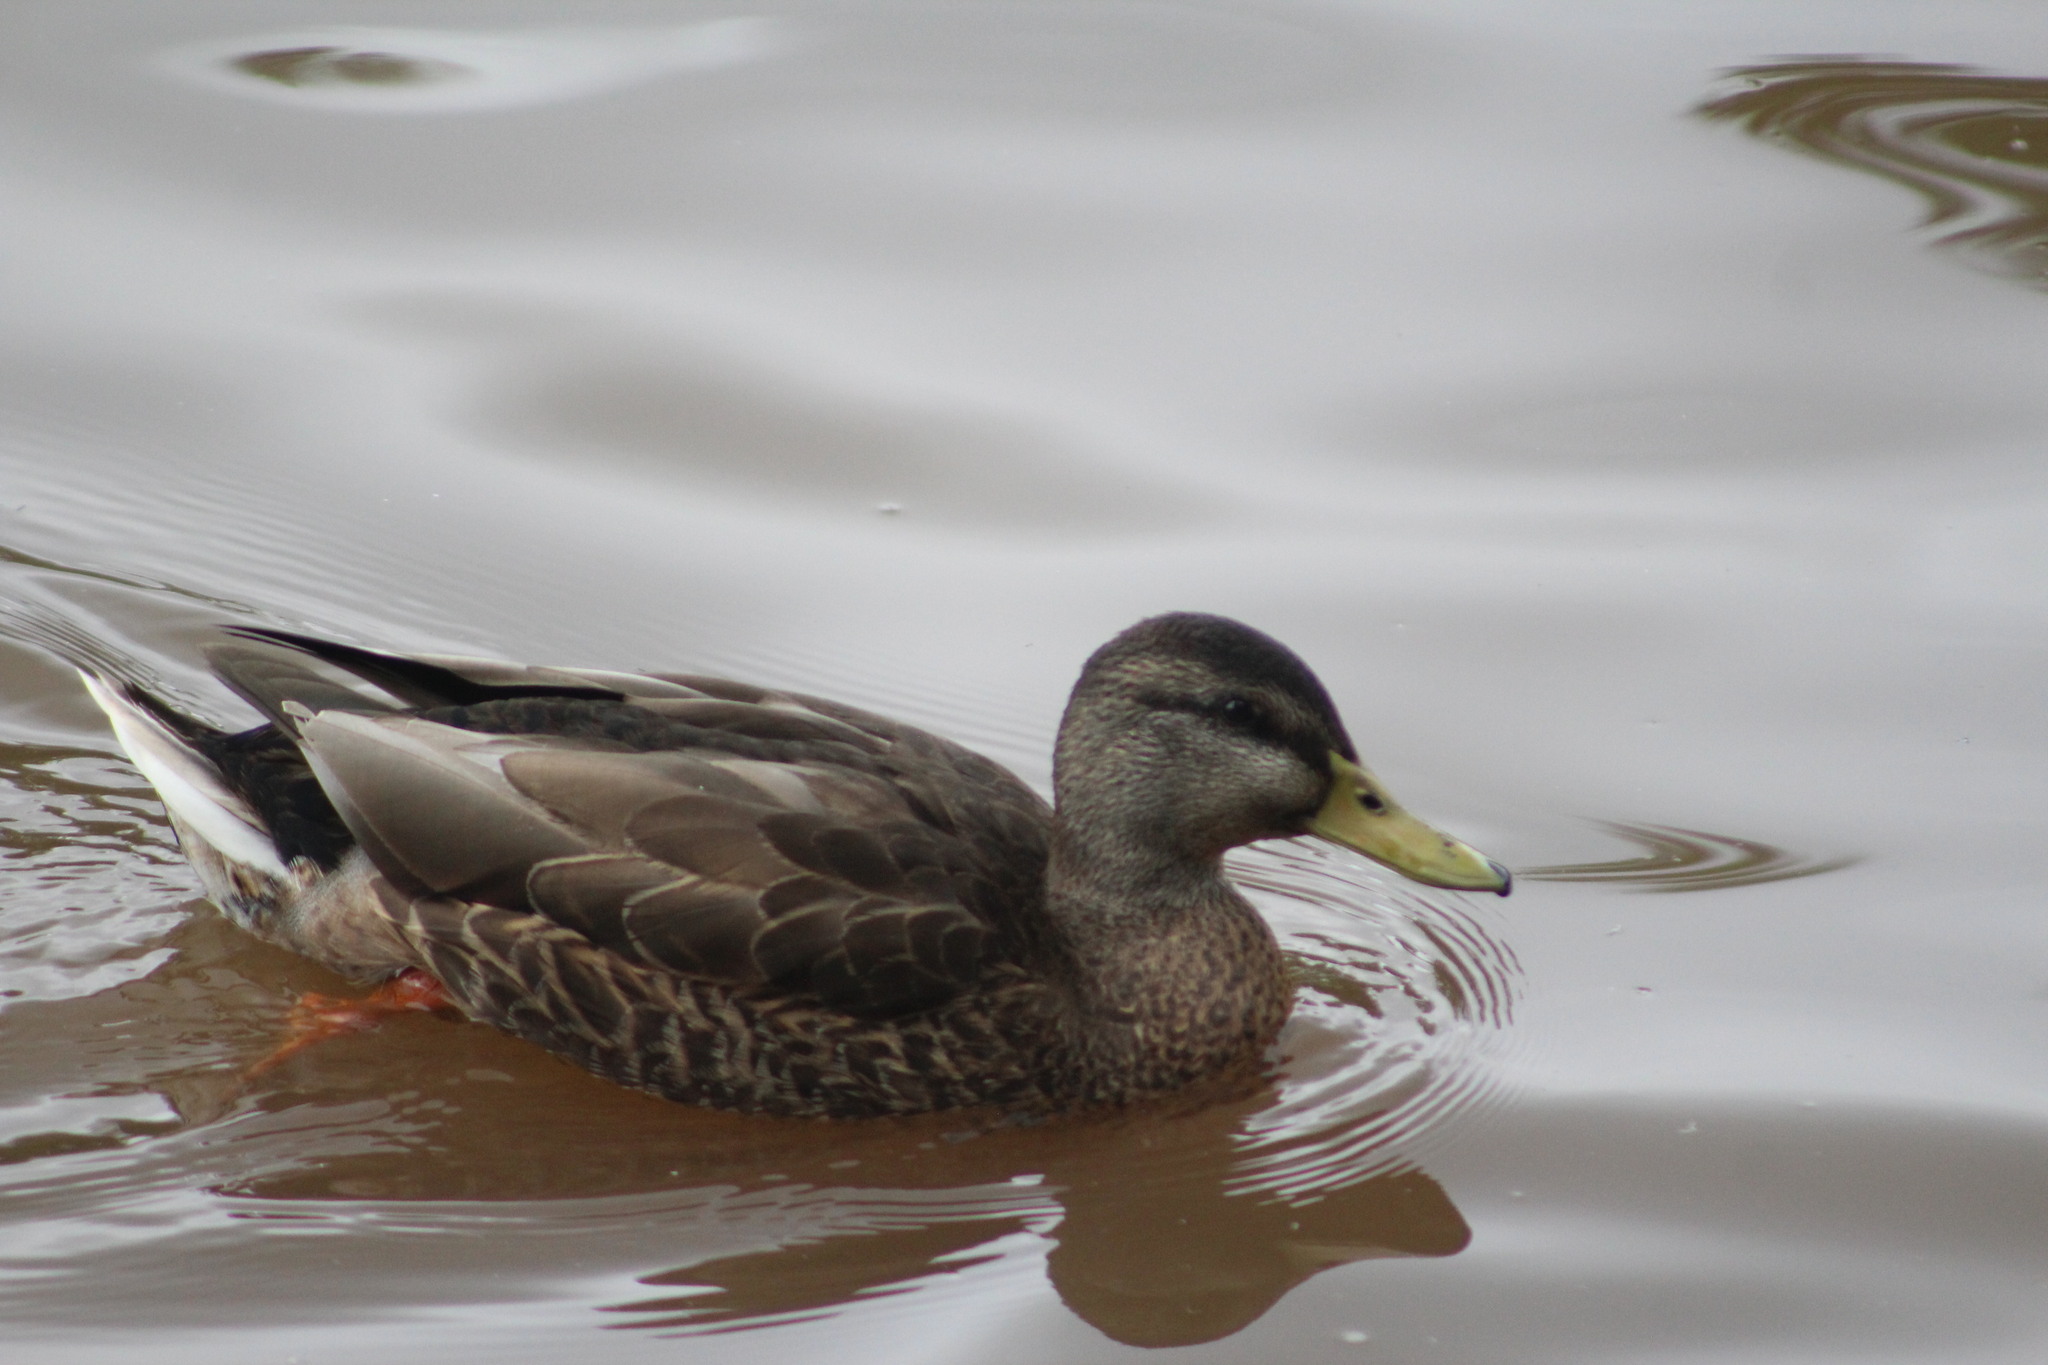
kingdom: Animalia
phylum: Chordata
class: Aves
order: Anseriformes
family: Anatidae
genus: Anas
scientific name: Anas platyrhynchos
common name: Mallard
